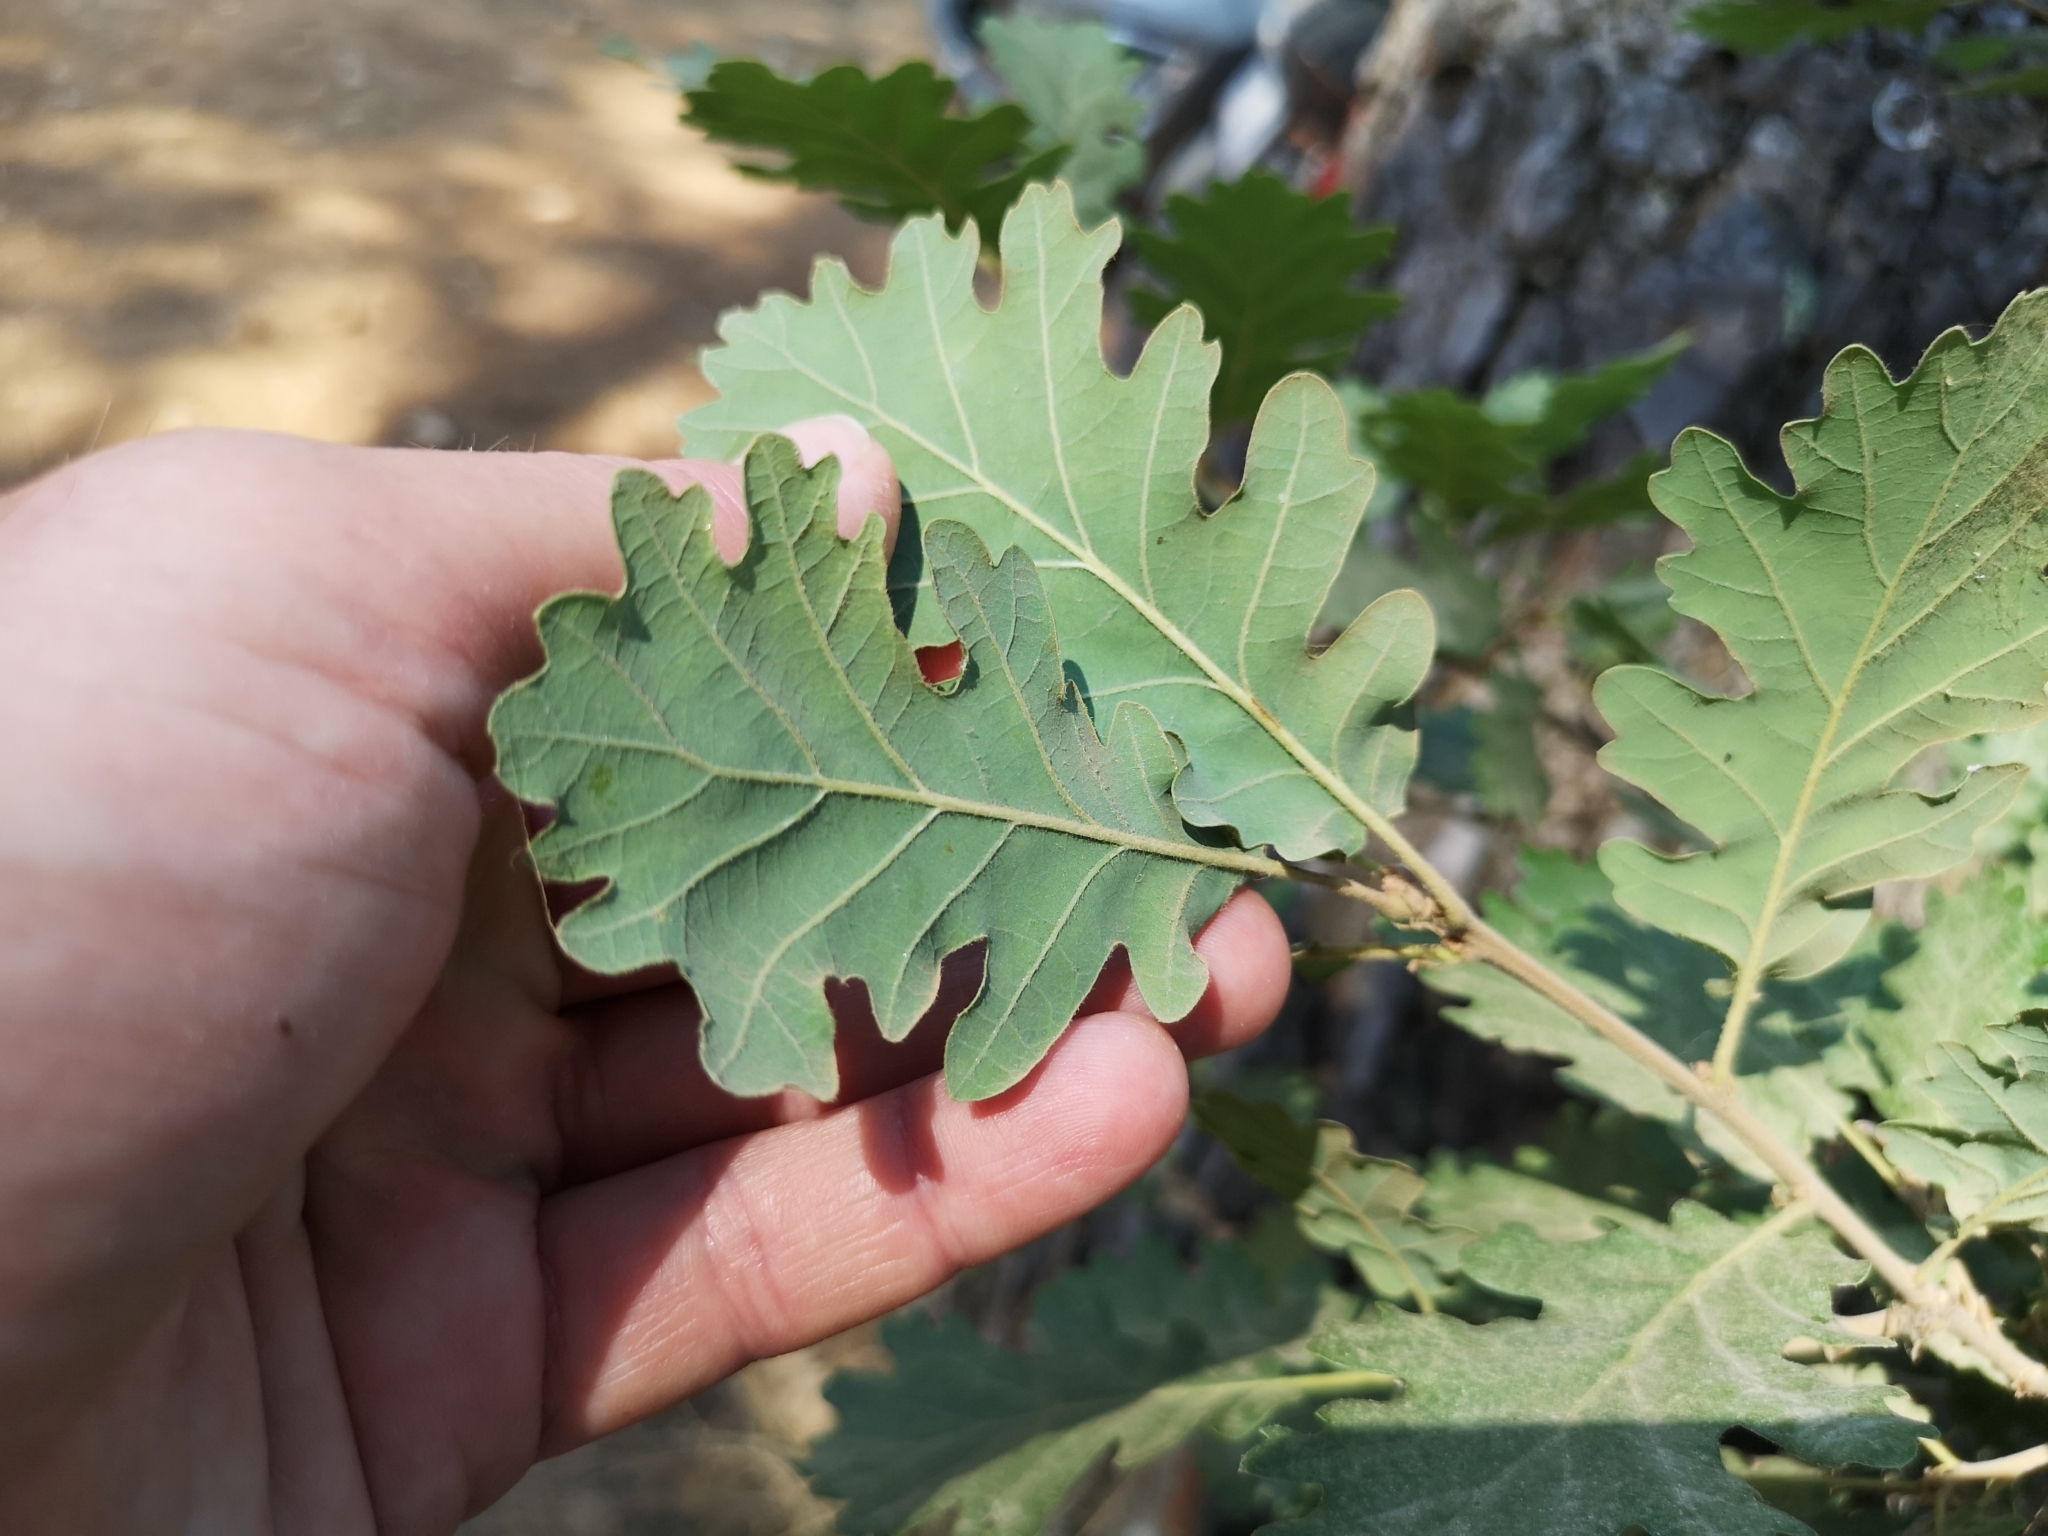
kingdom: Plantae
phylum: Tracheophyta
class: Magnoliopsida
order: Fagales
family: Fagaceae
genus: Quercus
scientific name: Quercus pubescens
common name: Downy oak
